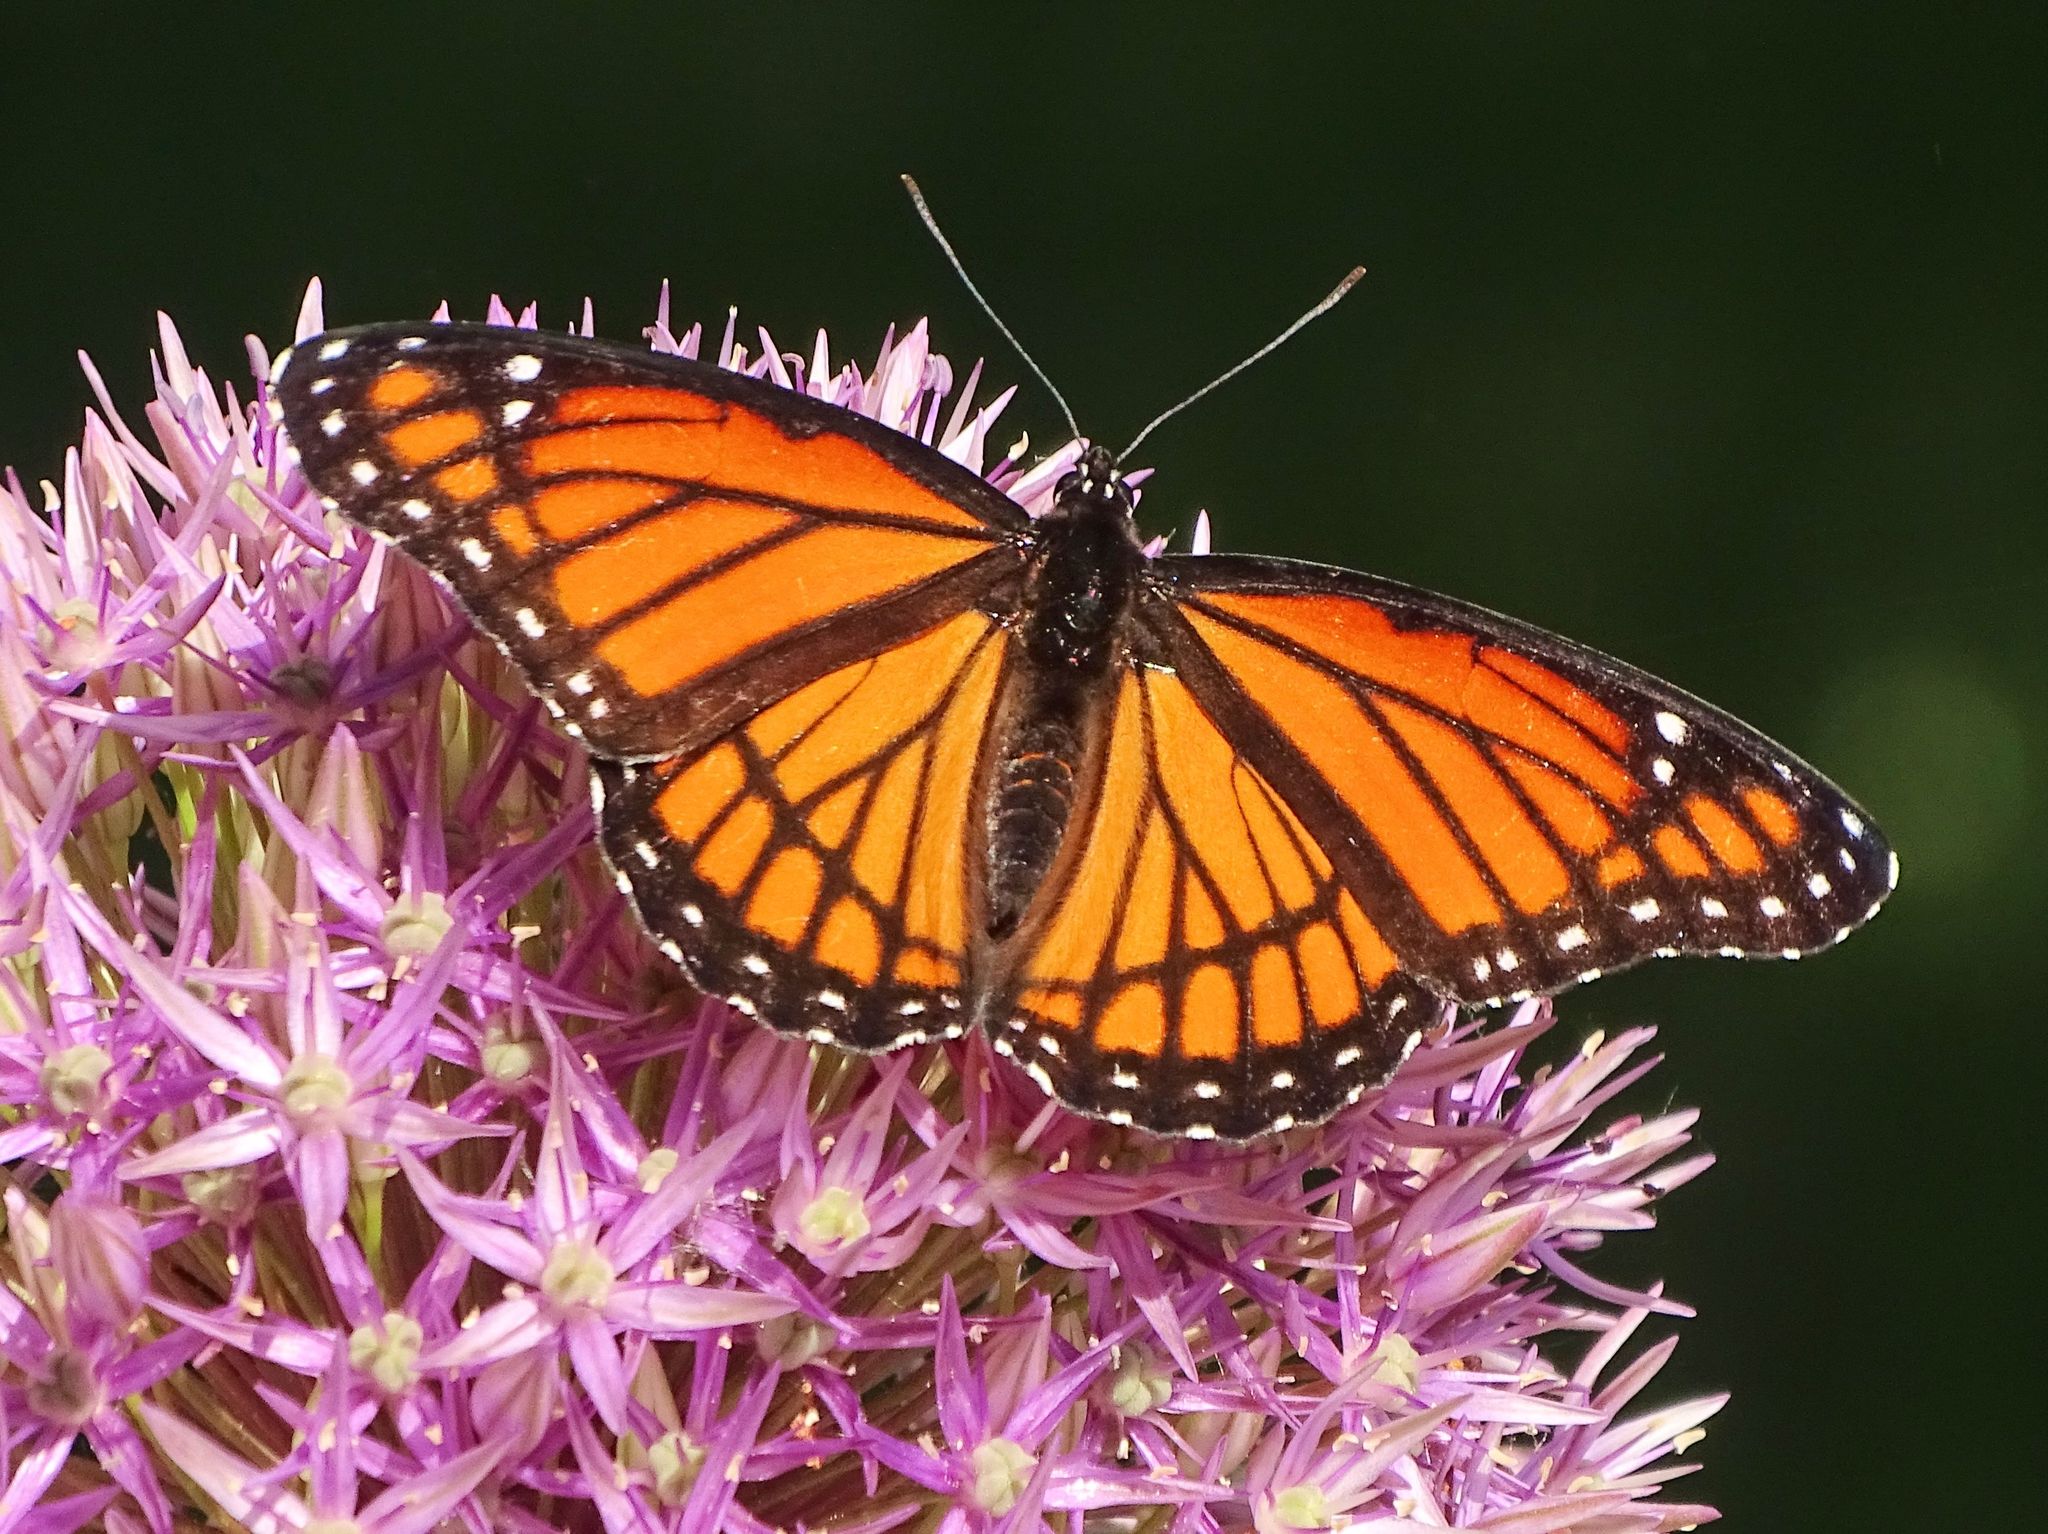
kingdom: Animalia
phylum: Arthropoda
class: Insecta
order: Lepidoptera
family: Nymphalidae
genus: Limenitis
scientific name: Limenitis archippus
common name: Viceroy
